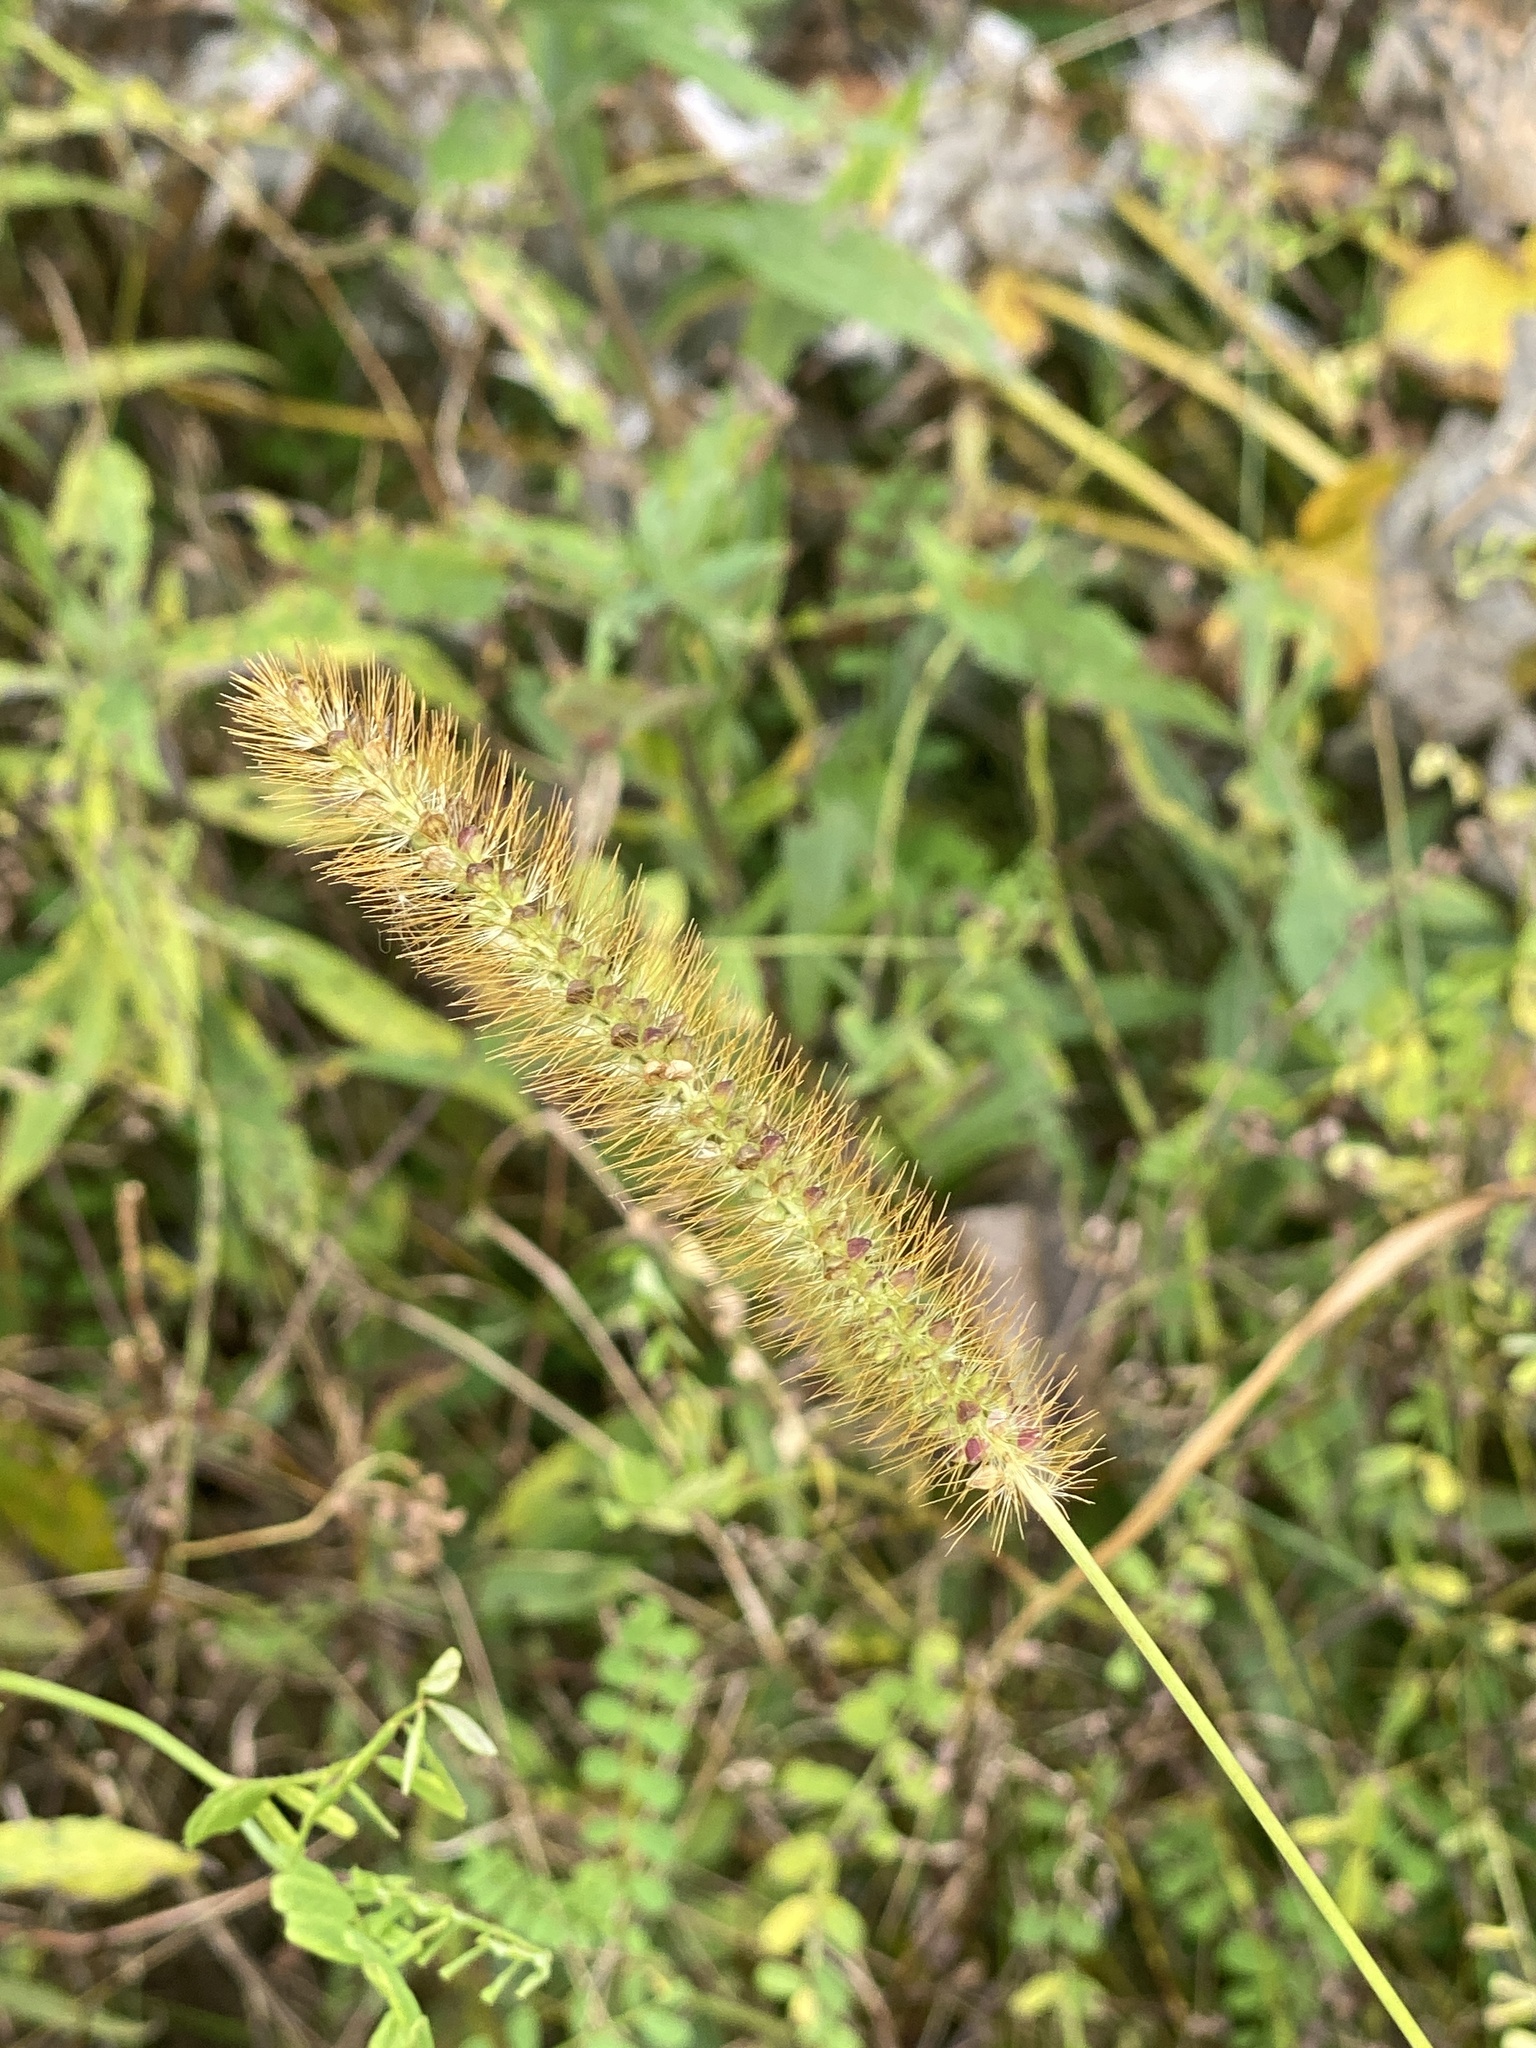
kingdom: Plantae
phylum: Tracheophyta
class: Liliopsida
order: Poales
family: Poaceae
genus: Setaria
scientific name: Setaria pumila
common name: Yellow bristle-grass
